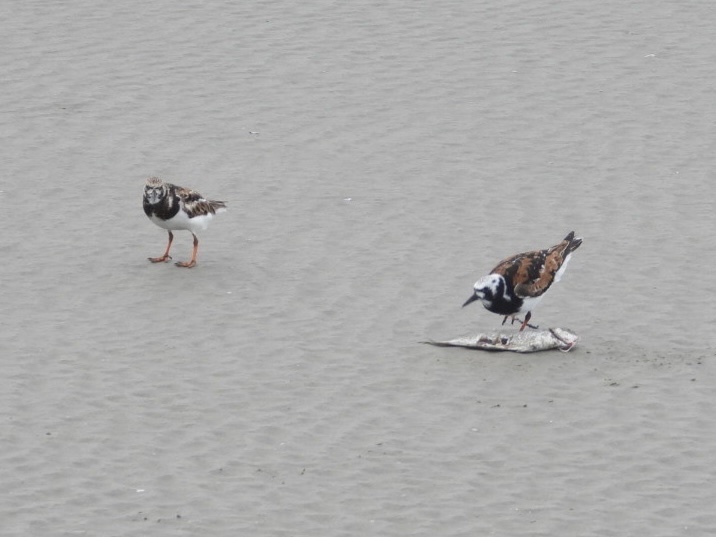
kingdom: Animalia
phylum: Chordata
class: Aves
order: Charadriiformes
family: Scolopacidae
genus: Arenaria
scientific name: Arenaria interpres
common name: Ruddy turnstone
